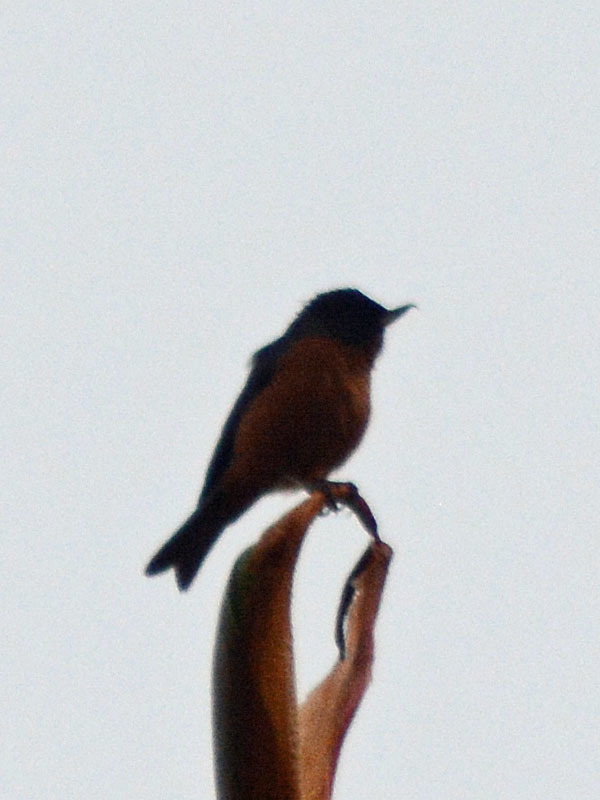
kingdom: Animalia
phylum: Chordata
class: Aves
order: Passeriformes
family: Thraupidae
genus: Diglossa
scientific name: Diglossa baritula
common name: Cinnamon-bellied flowerpiercer
